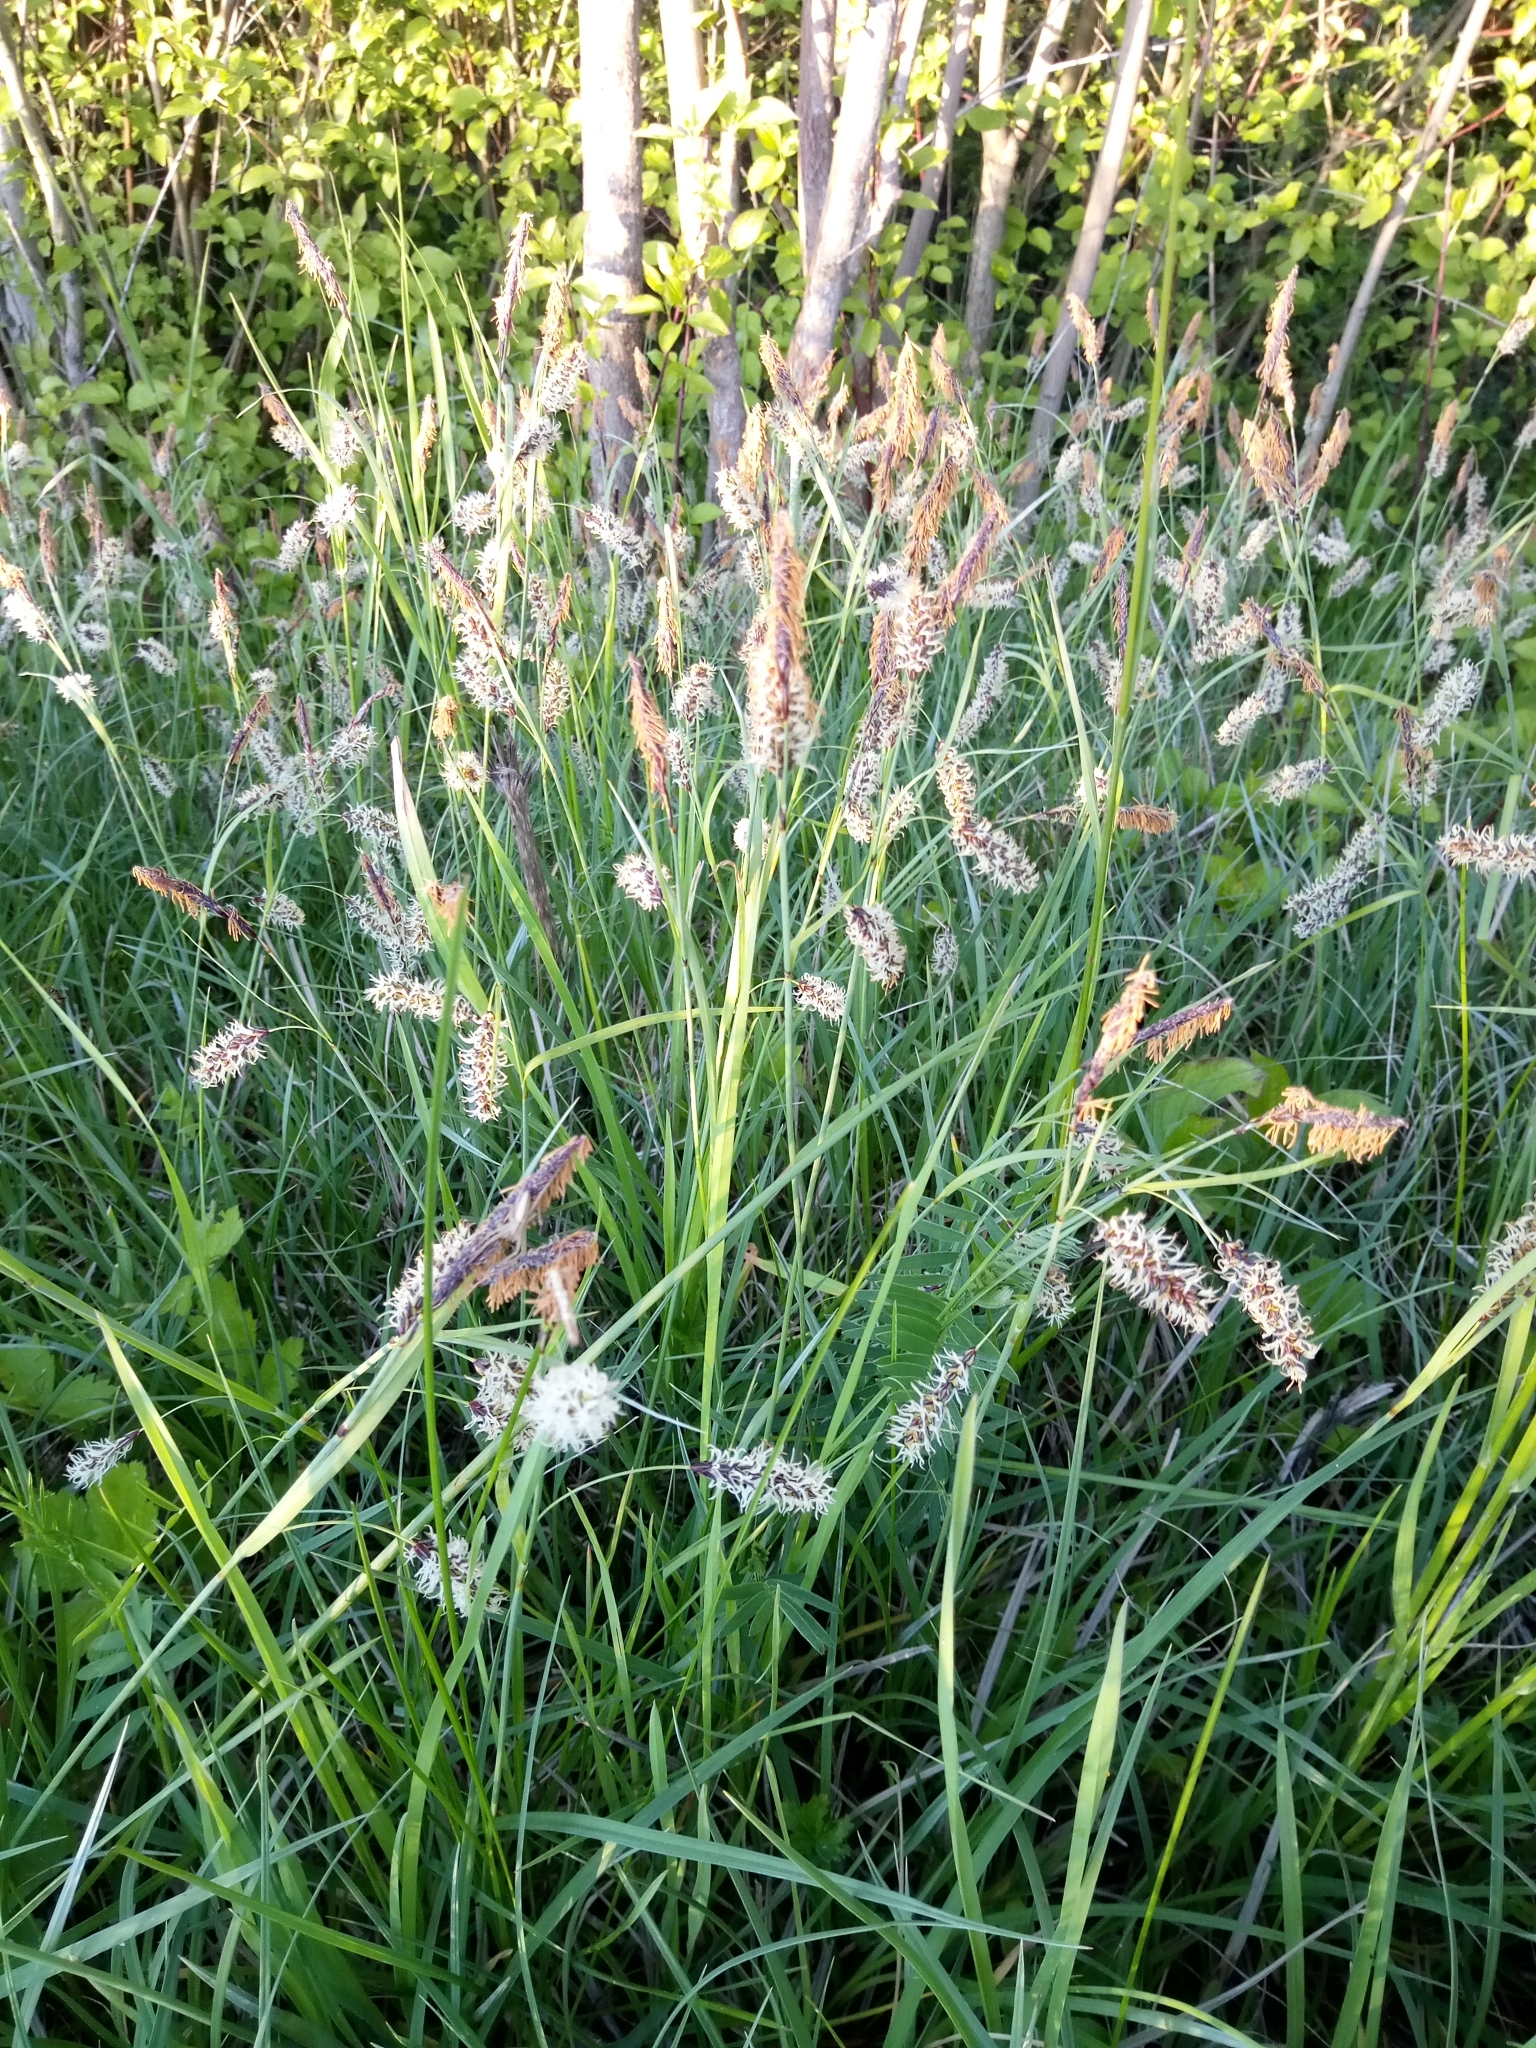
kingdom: Plantae
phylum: Tracheophyta
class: Liliopsida
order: Poales
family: Cyperaceae
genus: Carex
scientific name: Carex flacca
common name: Glaucous sedge
